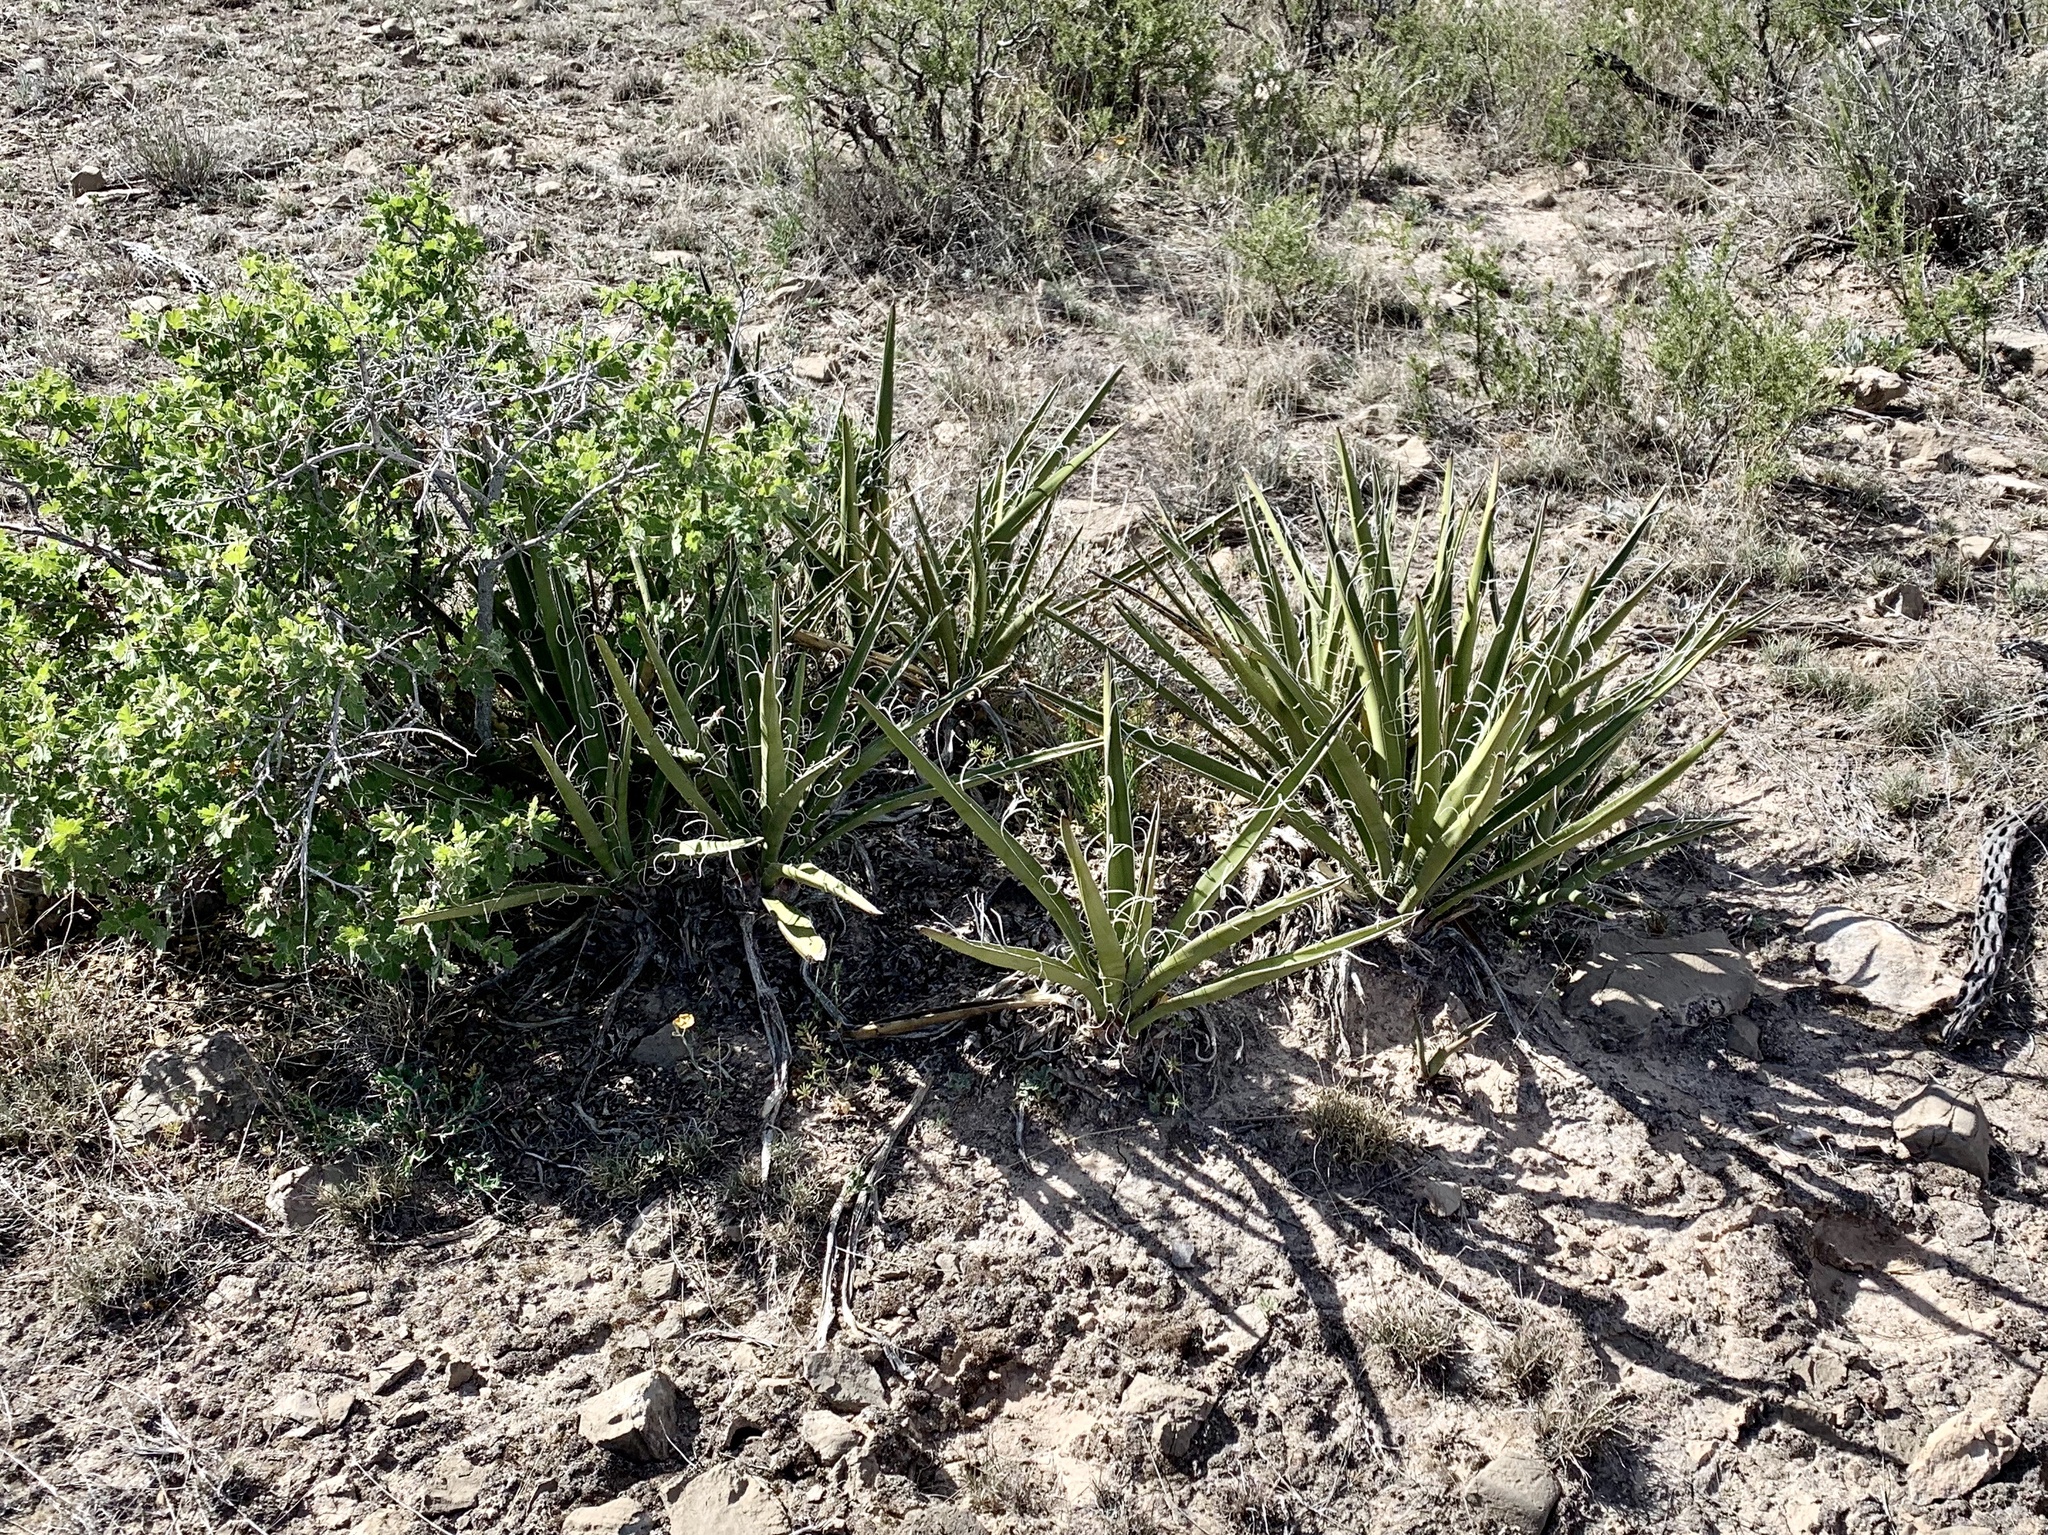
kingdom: Plantae
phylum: Tracheophyta
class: Liliopsida
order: Asparagales
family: Asparagaceae
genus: Yucca
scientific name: Yucca baccata
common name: Banana yucca
